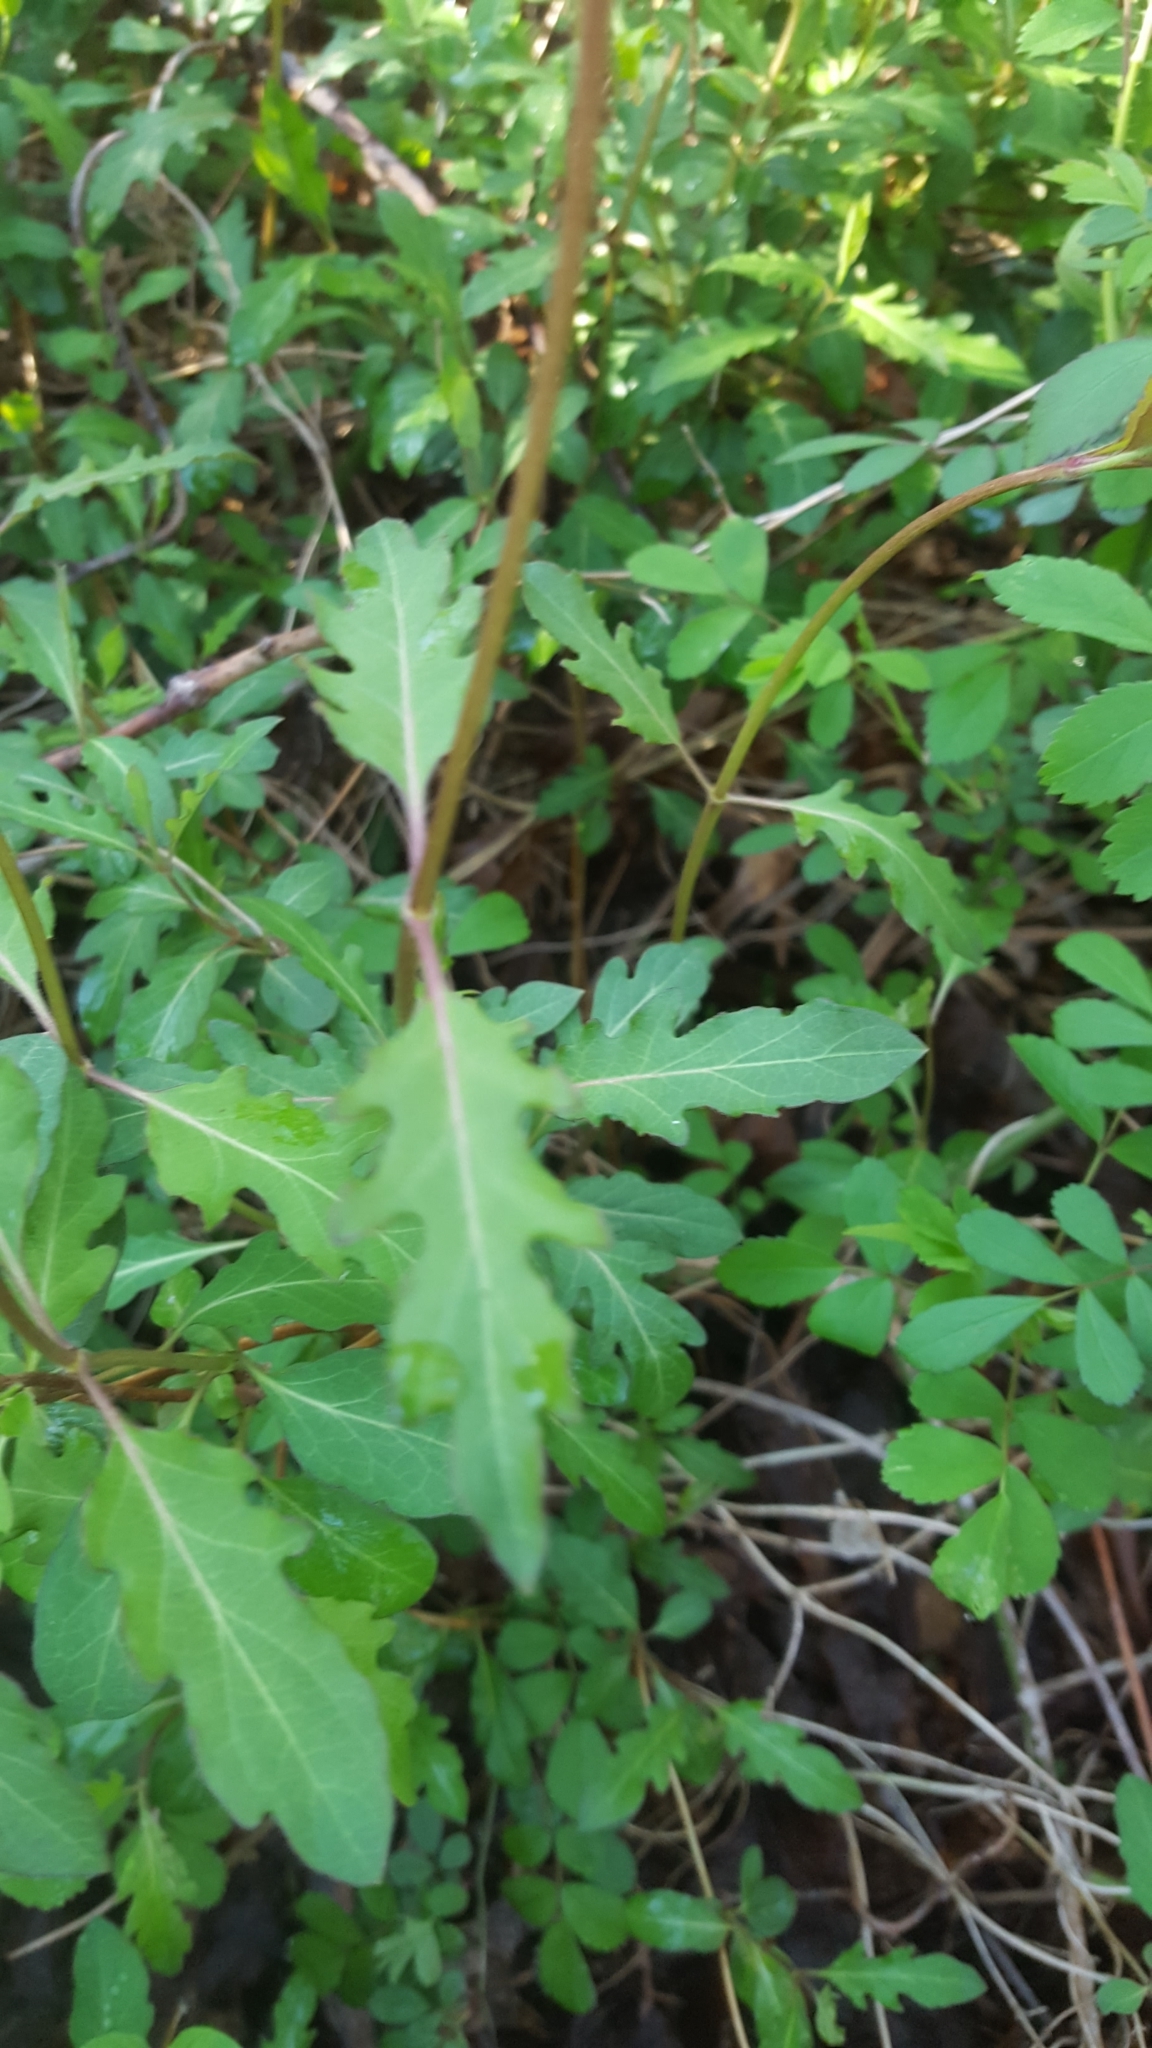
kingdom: Plantae
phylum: Tracheophyta
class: Magnoliopsida
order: Dipsacales
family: Caprifoliaceae
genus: Lonicera
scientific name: Lonicera japonica
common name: Japanese honeysuckle
